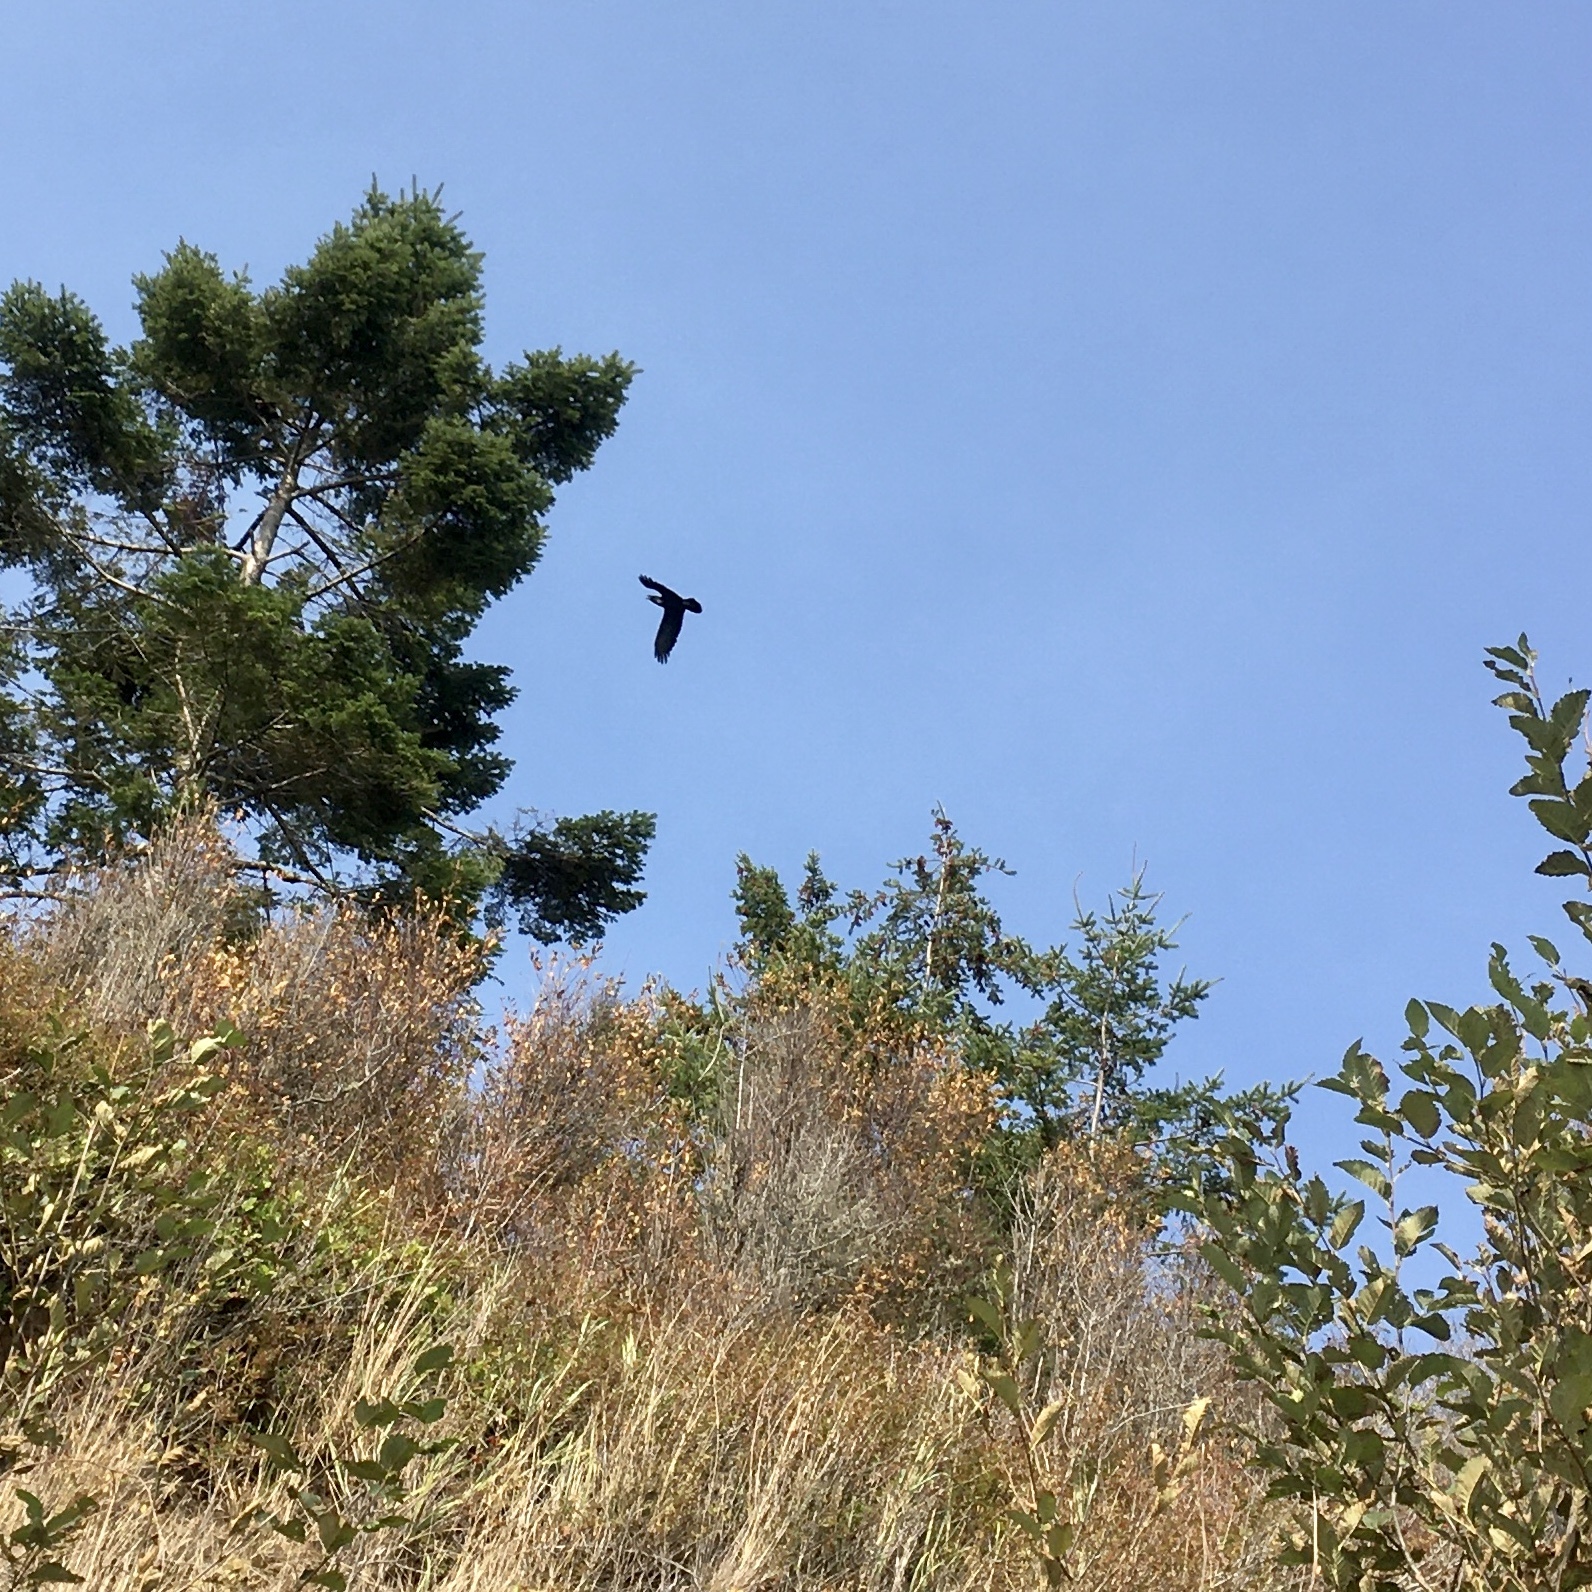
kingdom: Animalia
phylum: Chordata
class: Aves
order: Passeriformes
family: Corvidae
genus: Corvus
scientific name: Corvus corax
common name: Common raven
